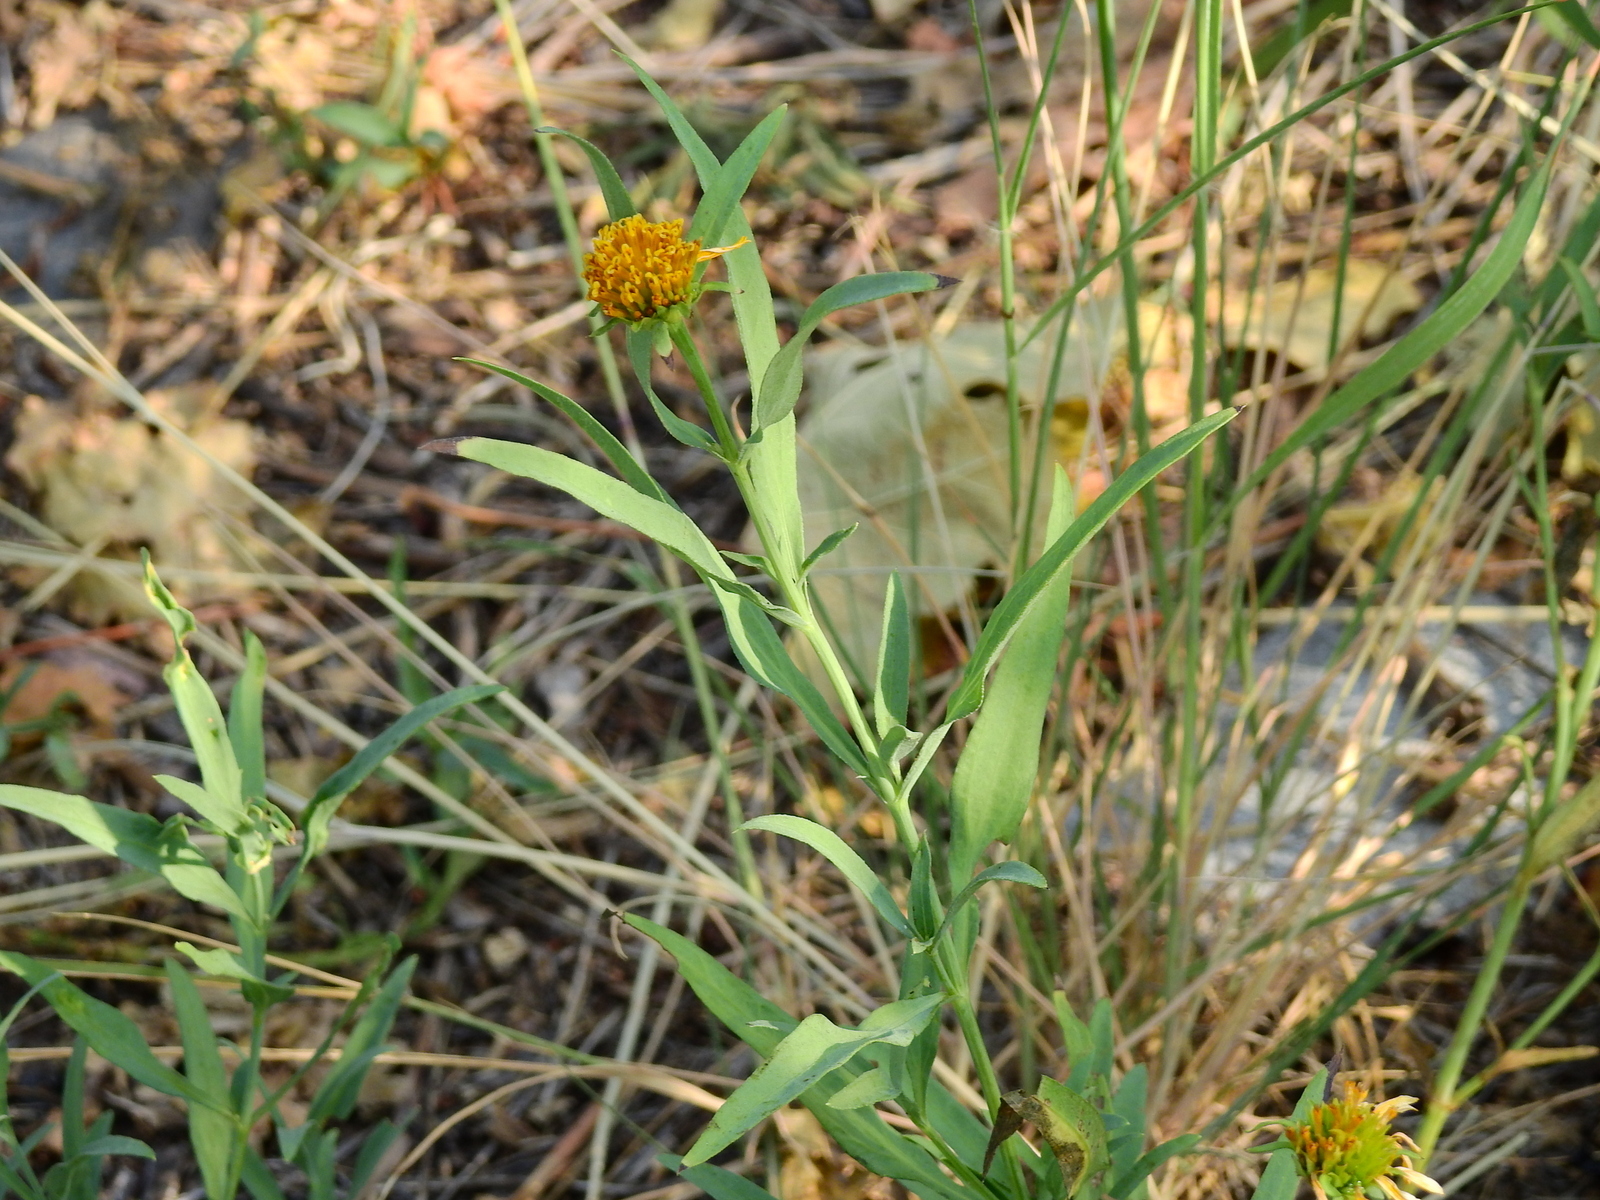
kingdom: Plantae
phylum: Tracheophyta
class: Magnoliopsida
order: Asterales
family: Asteraceae
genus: Pascalia
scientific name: Pascalia glauca
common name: Beach creeping oxeye
